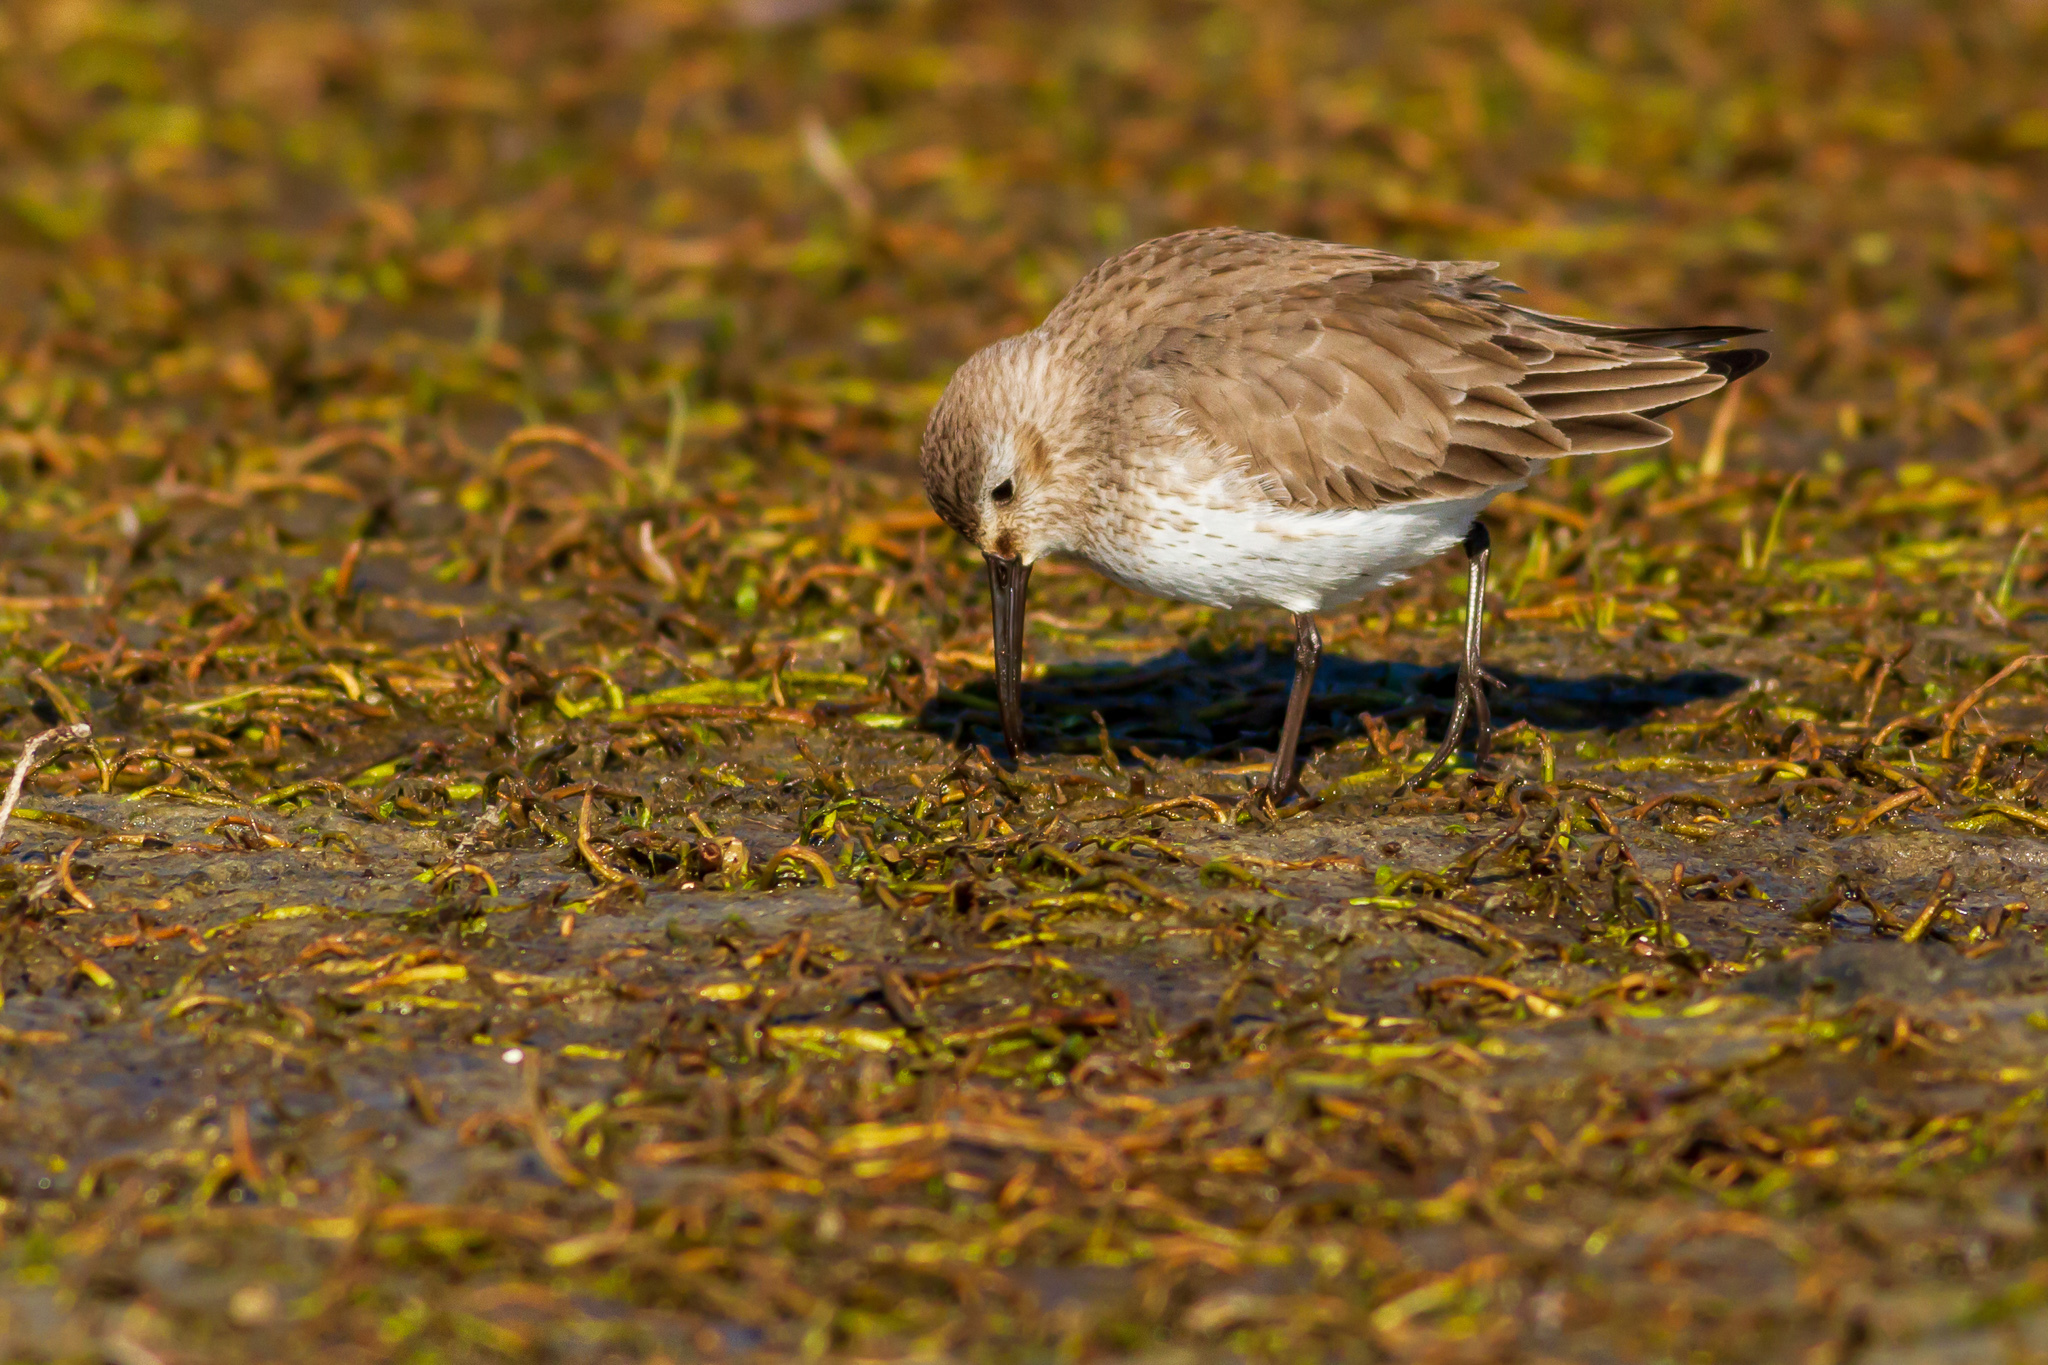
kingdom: Animalia
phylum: Chordata
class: Aves
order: Charadriiformes
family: Scolopacidae
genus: Calidris
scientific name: Calidris alpina
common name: Dunlin
